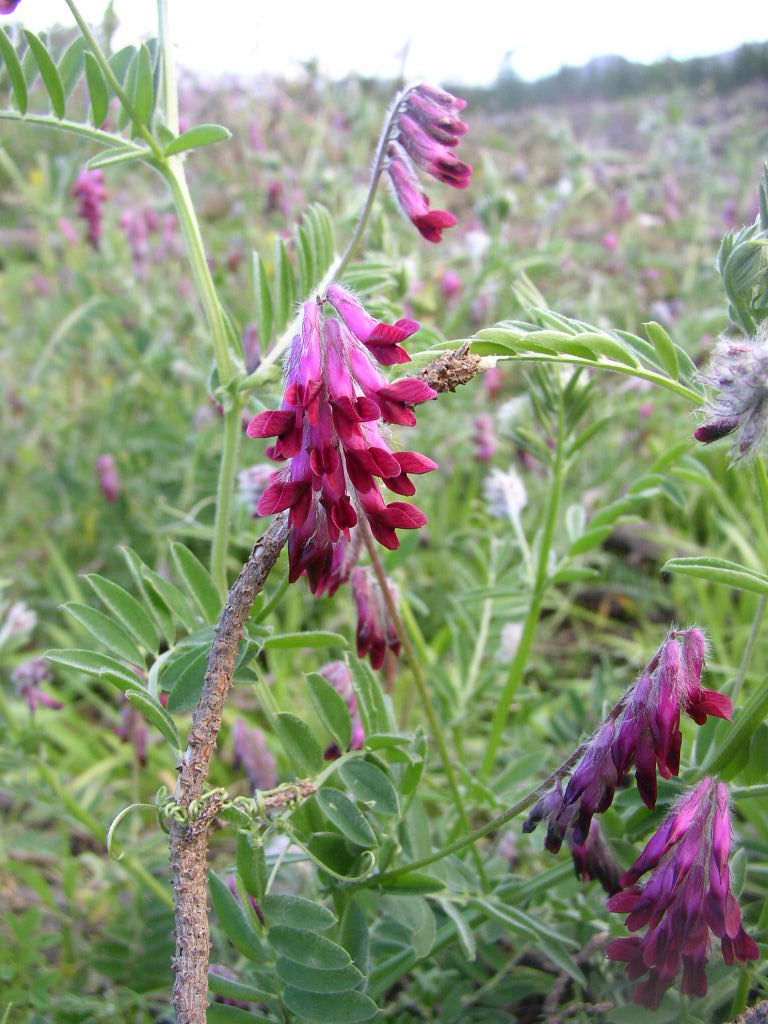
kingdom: Plantae
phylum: Tracheophyta
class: Magnoliopsida
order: Fabales
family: Fabaceae
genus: Vicia
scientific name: Vicia benghalensis
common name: Purple vetch
